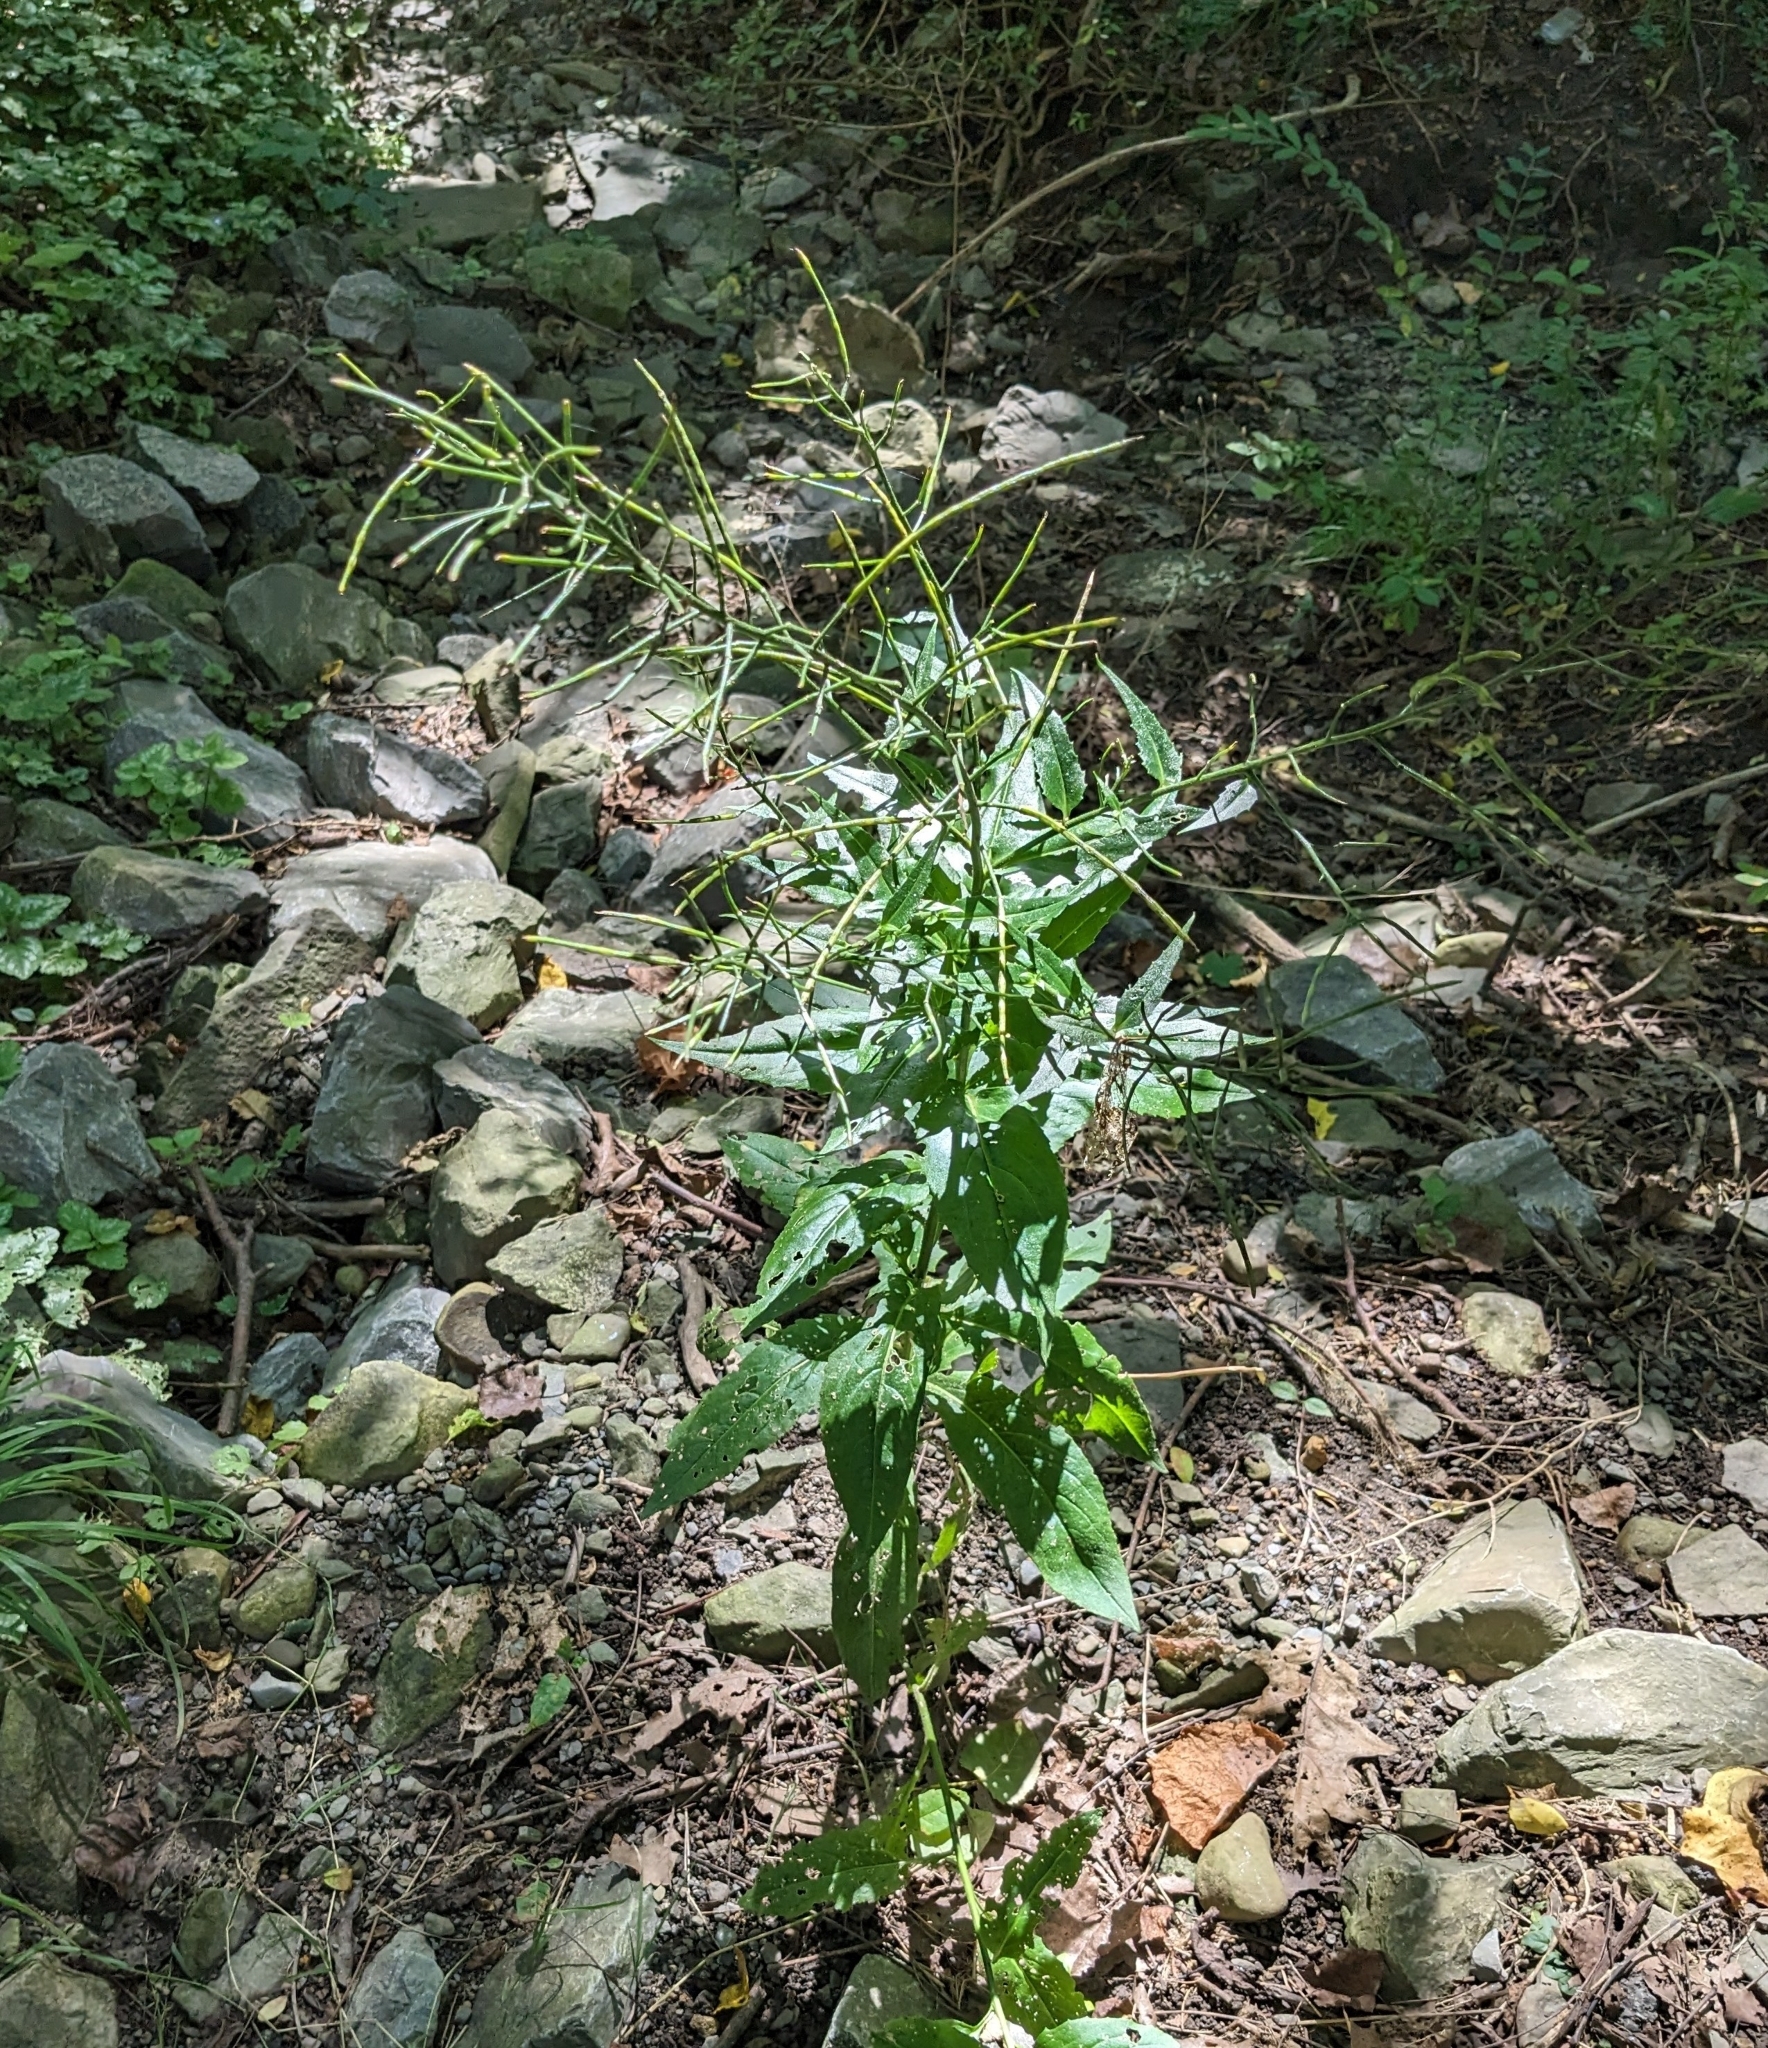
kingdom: Plantae
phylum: Tracheophyta
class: Magnoliopsida
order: Brassicales
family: Brassicaceae
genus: Hesperis
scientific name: Hesperis matronalis
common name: Dame's-violet
